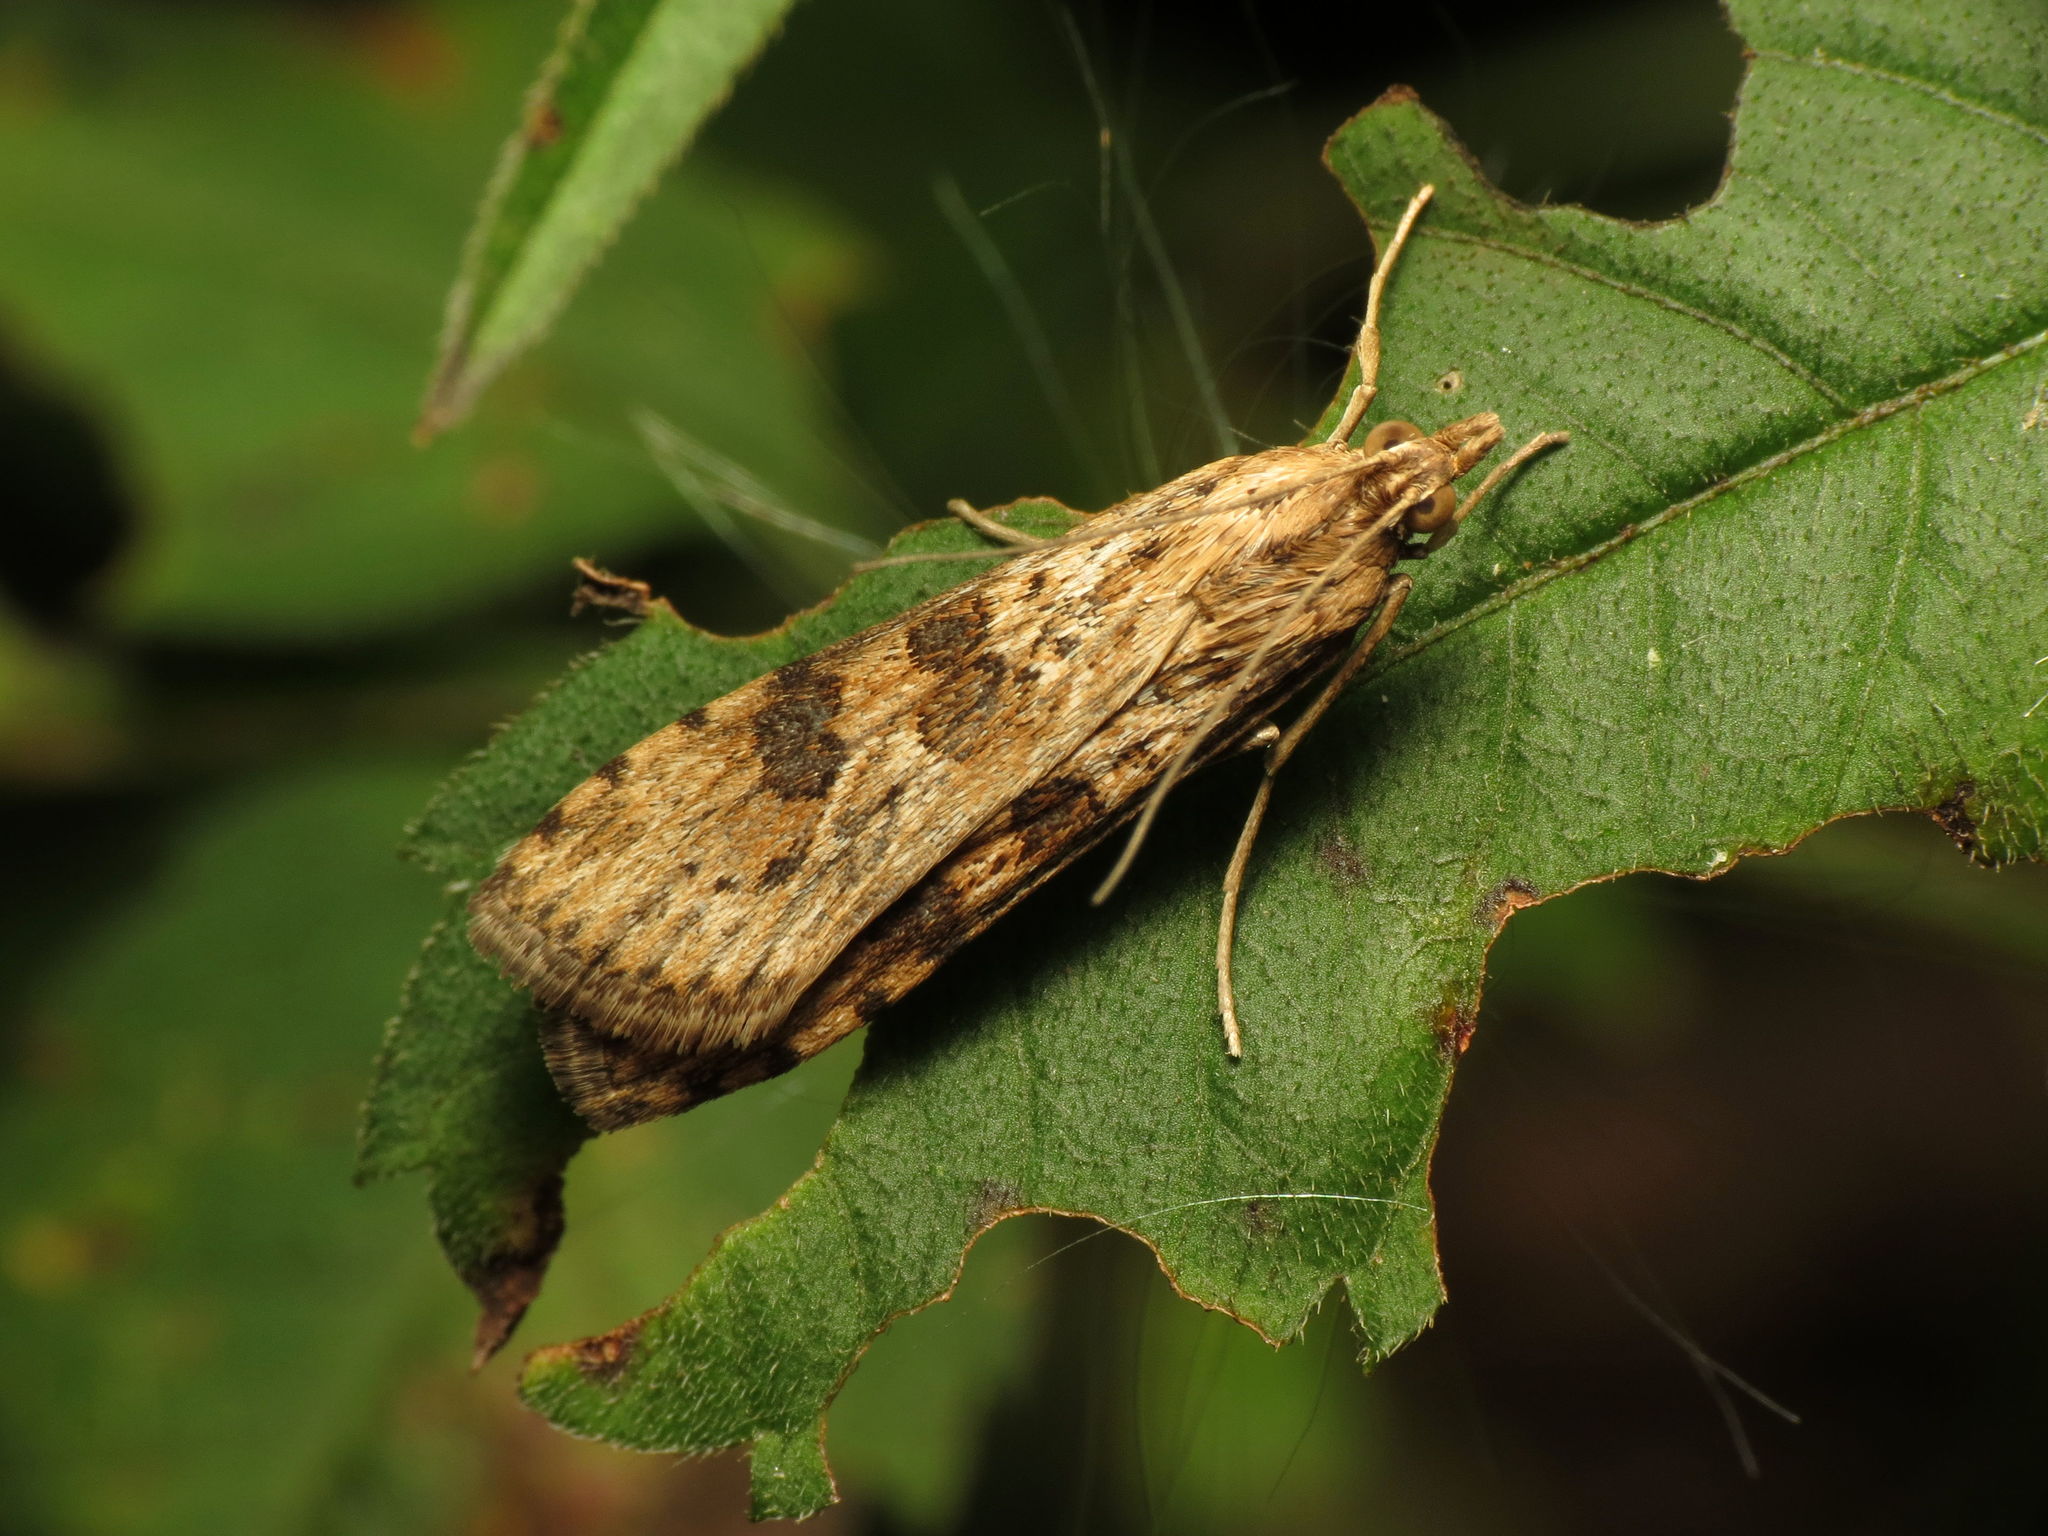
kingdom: Animalia
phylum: Arthropoda
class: Insecta
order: Lepidoptera
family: Crambidae
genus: Nomophila
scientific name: Nomophila nearctica
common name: American rush veneer
